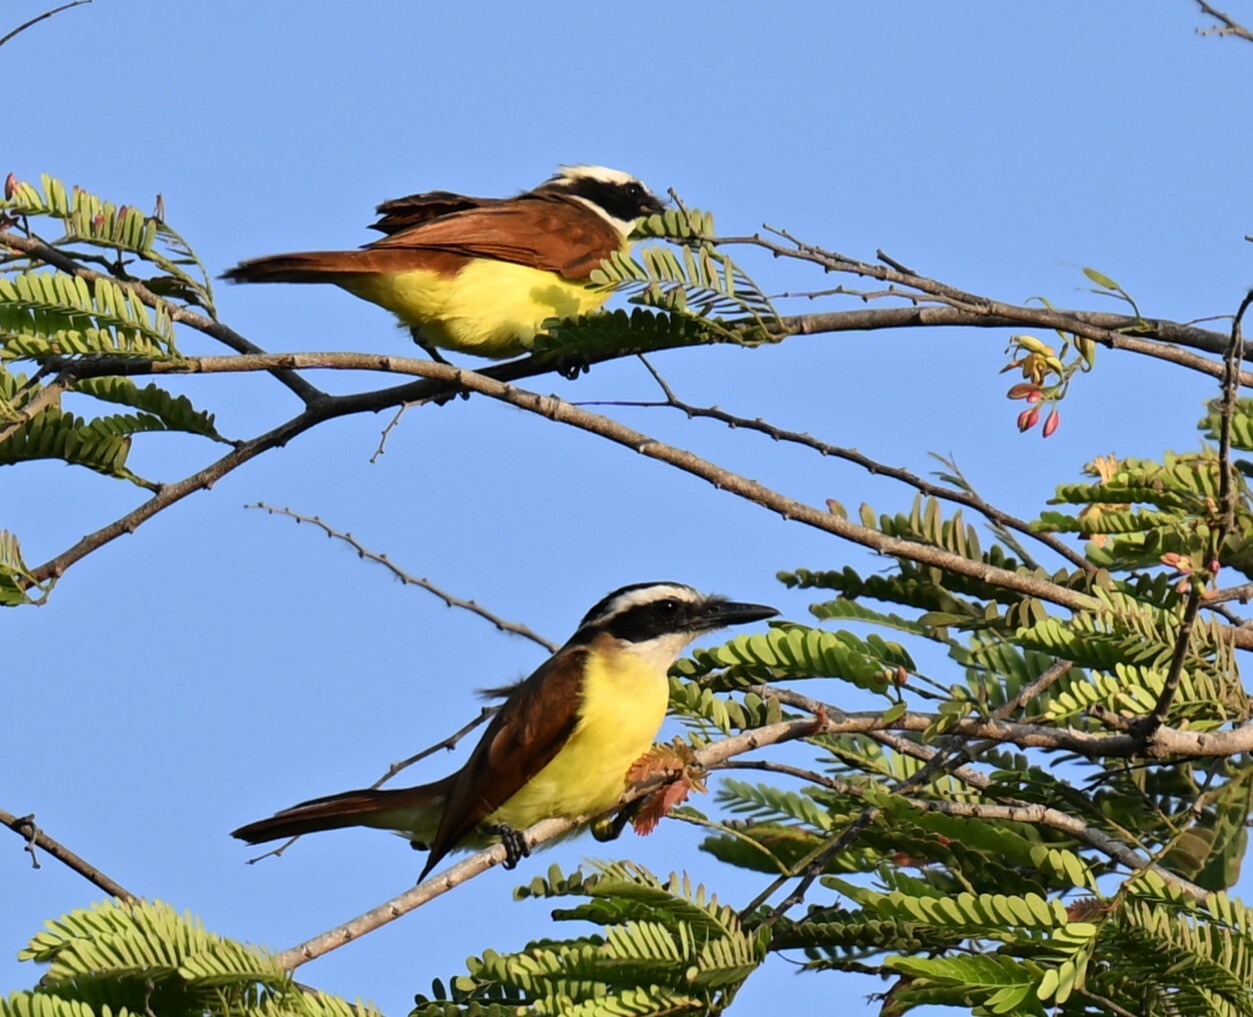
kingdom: Animalia
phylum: Chordata
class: Aves
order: Passeriformes
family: Tyrannidae
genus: Pitangus
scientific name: Pitangus sulphuratus
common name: Great kiskadee
